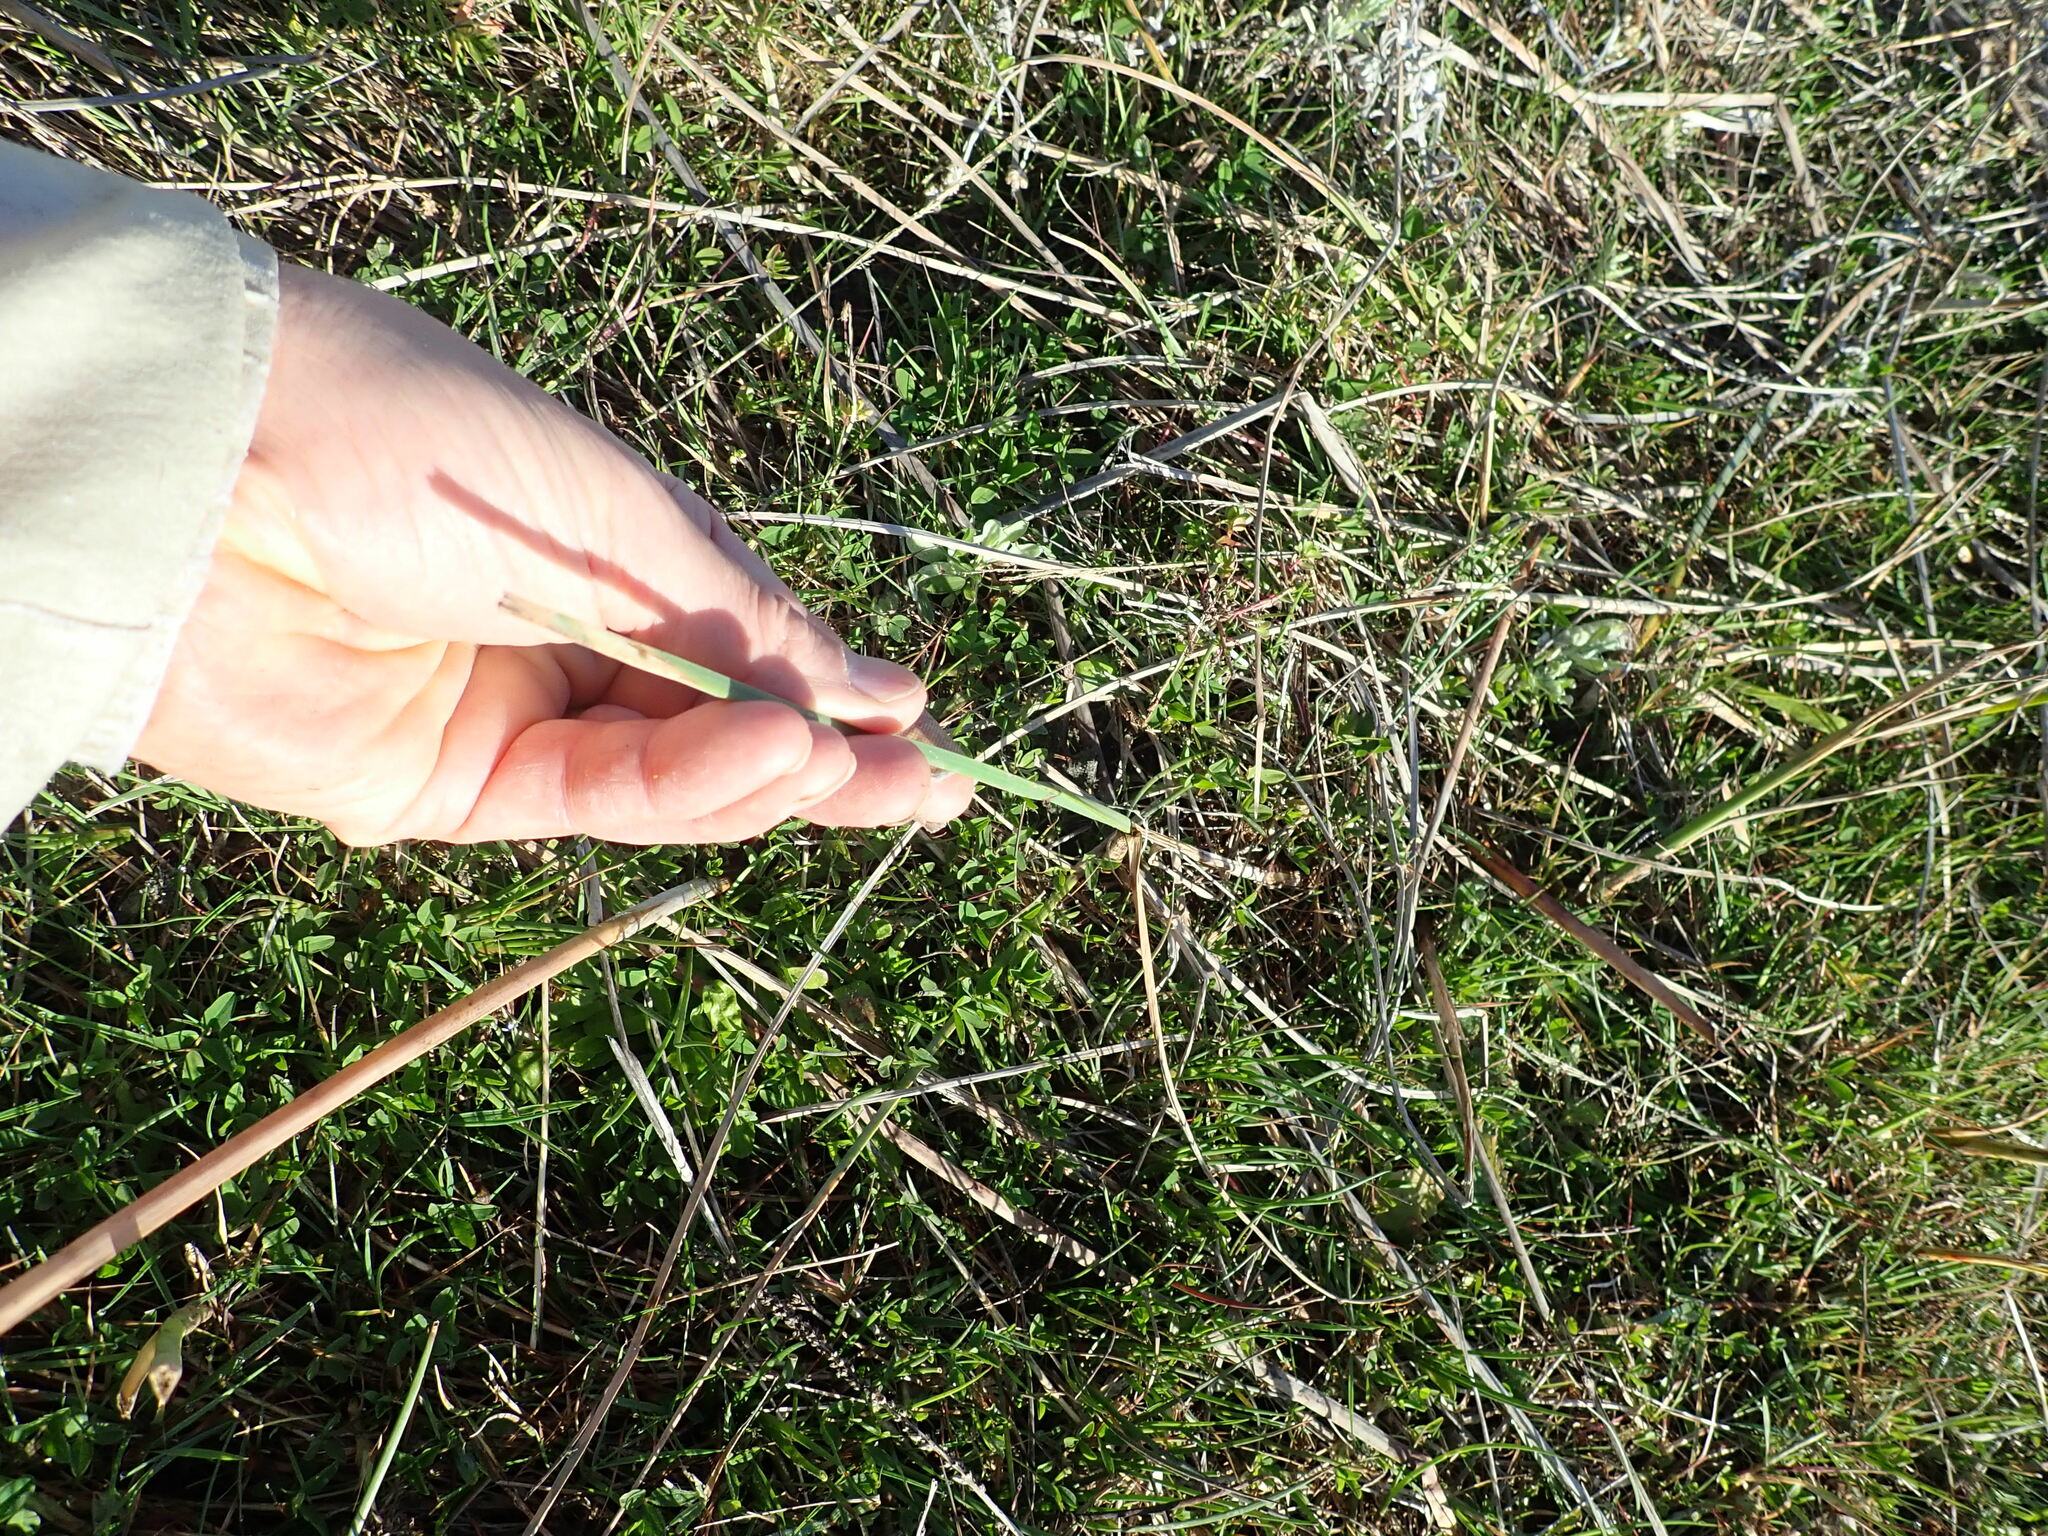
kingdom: Plantae
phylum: Tracheophyta
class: Liliopsida
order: Poales
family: Cyperaceae
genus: Schoenoplectus
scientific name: Schoenoplectus pungens
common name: Sharp club-rush
